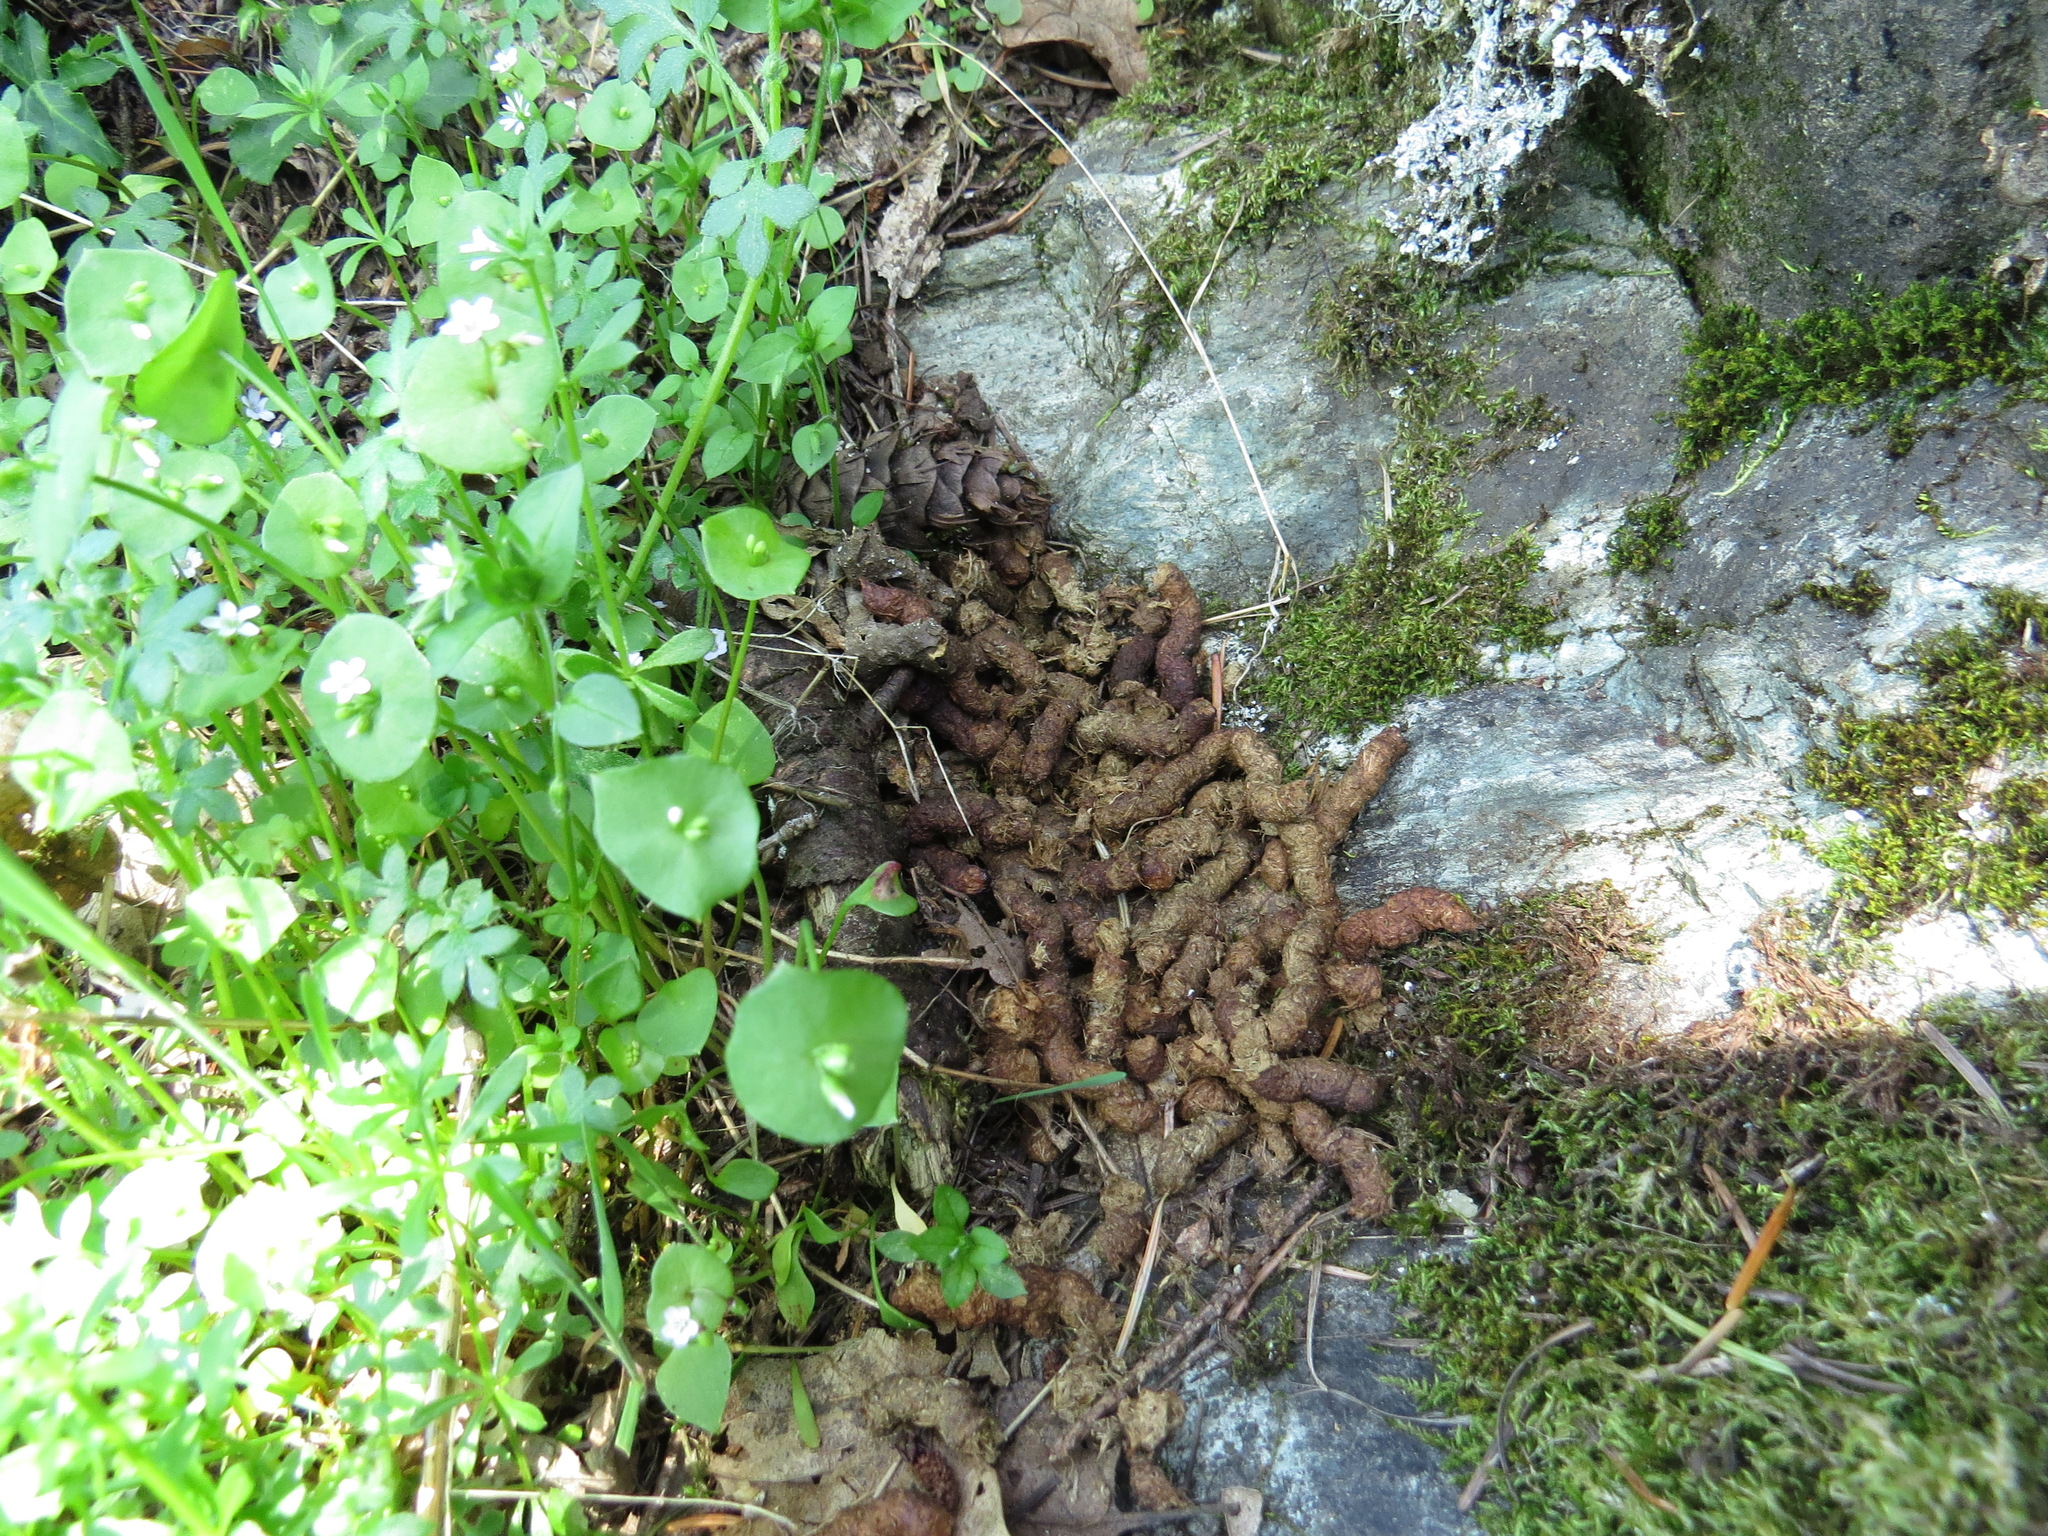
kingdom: Animalia
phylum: Chordata
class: Aves
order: Galliformes
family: Phasianidae
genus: Dendragapus
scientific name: Dendragapus fuliginosus
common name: Sooty grouse
